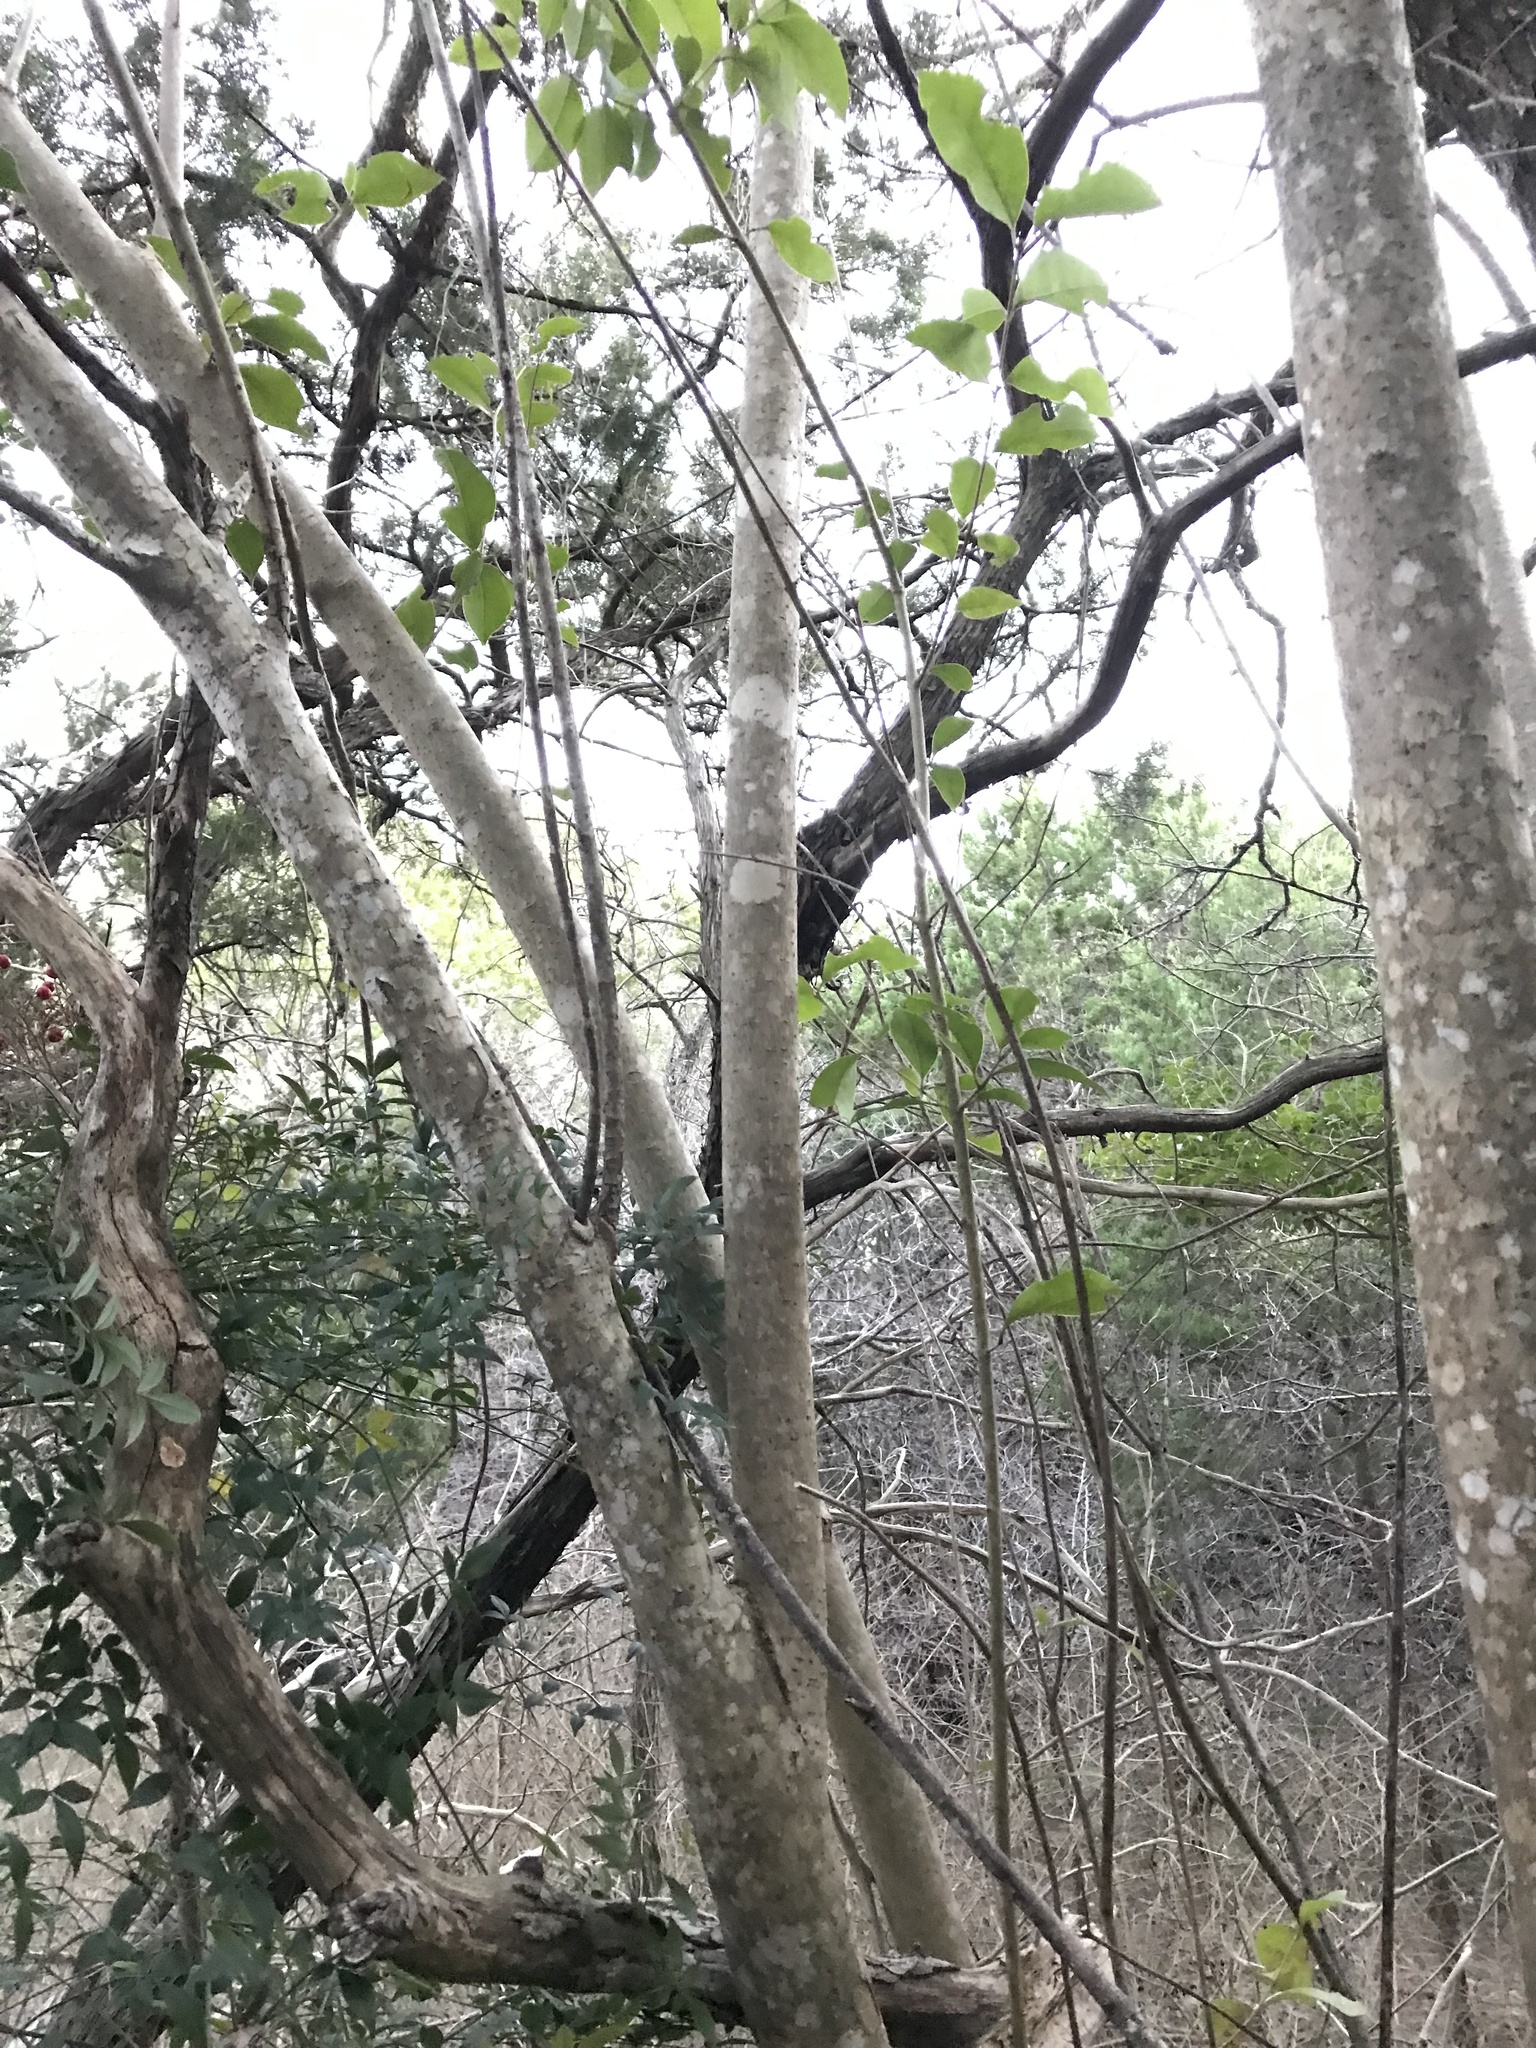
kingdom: Plantae
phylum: Tracheophyta
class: Magnoliopsida
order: Lamiales
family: Oleaceae
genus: Ligustrum
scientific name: Ligustrum lucidum
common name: Glossy privet
